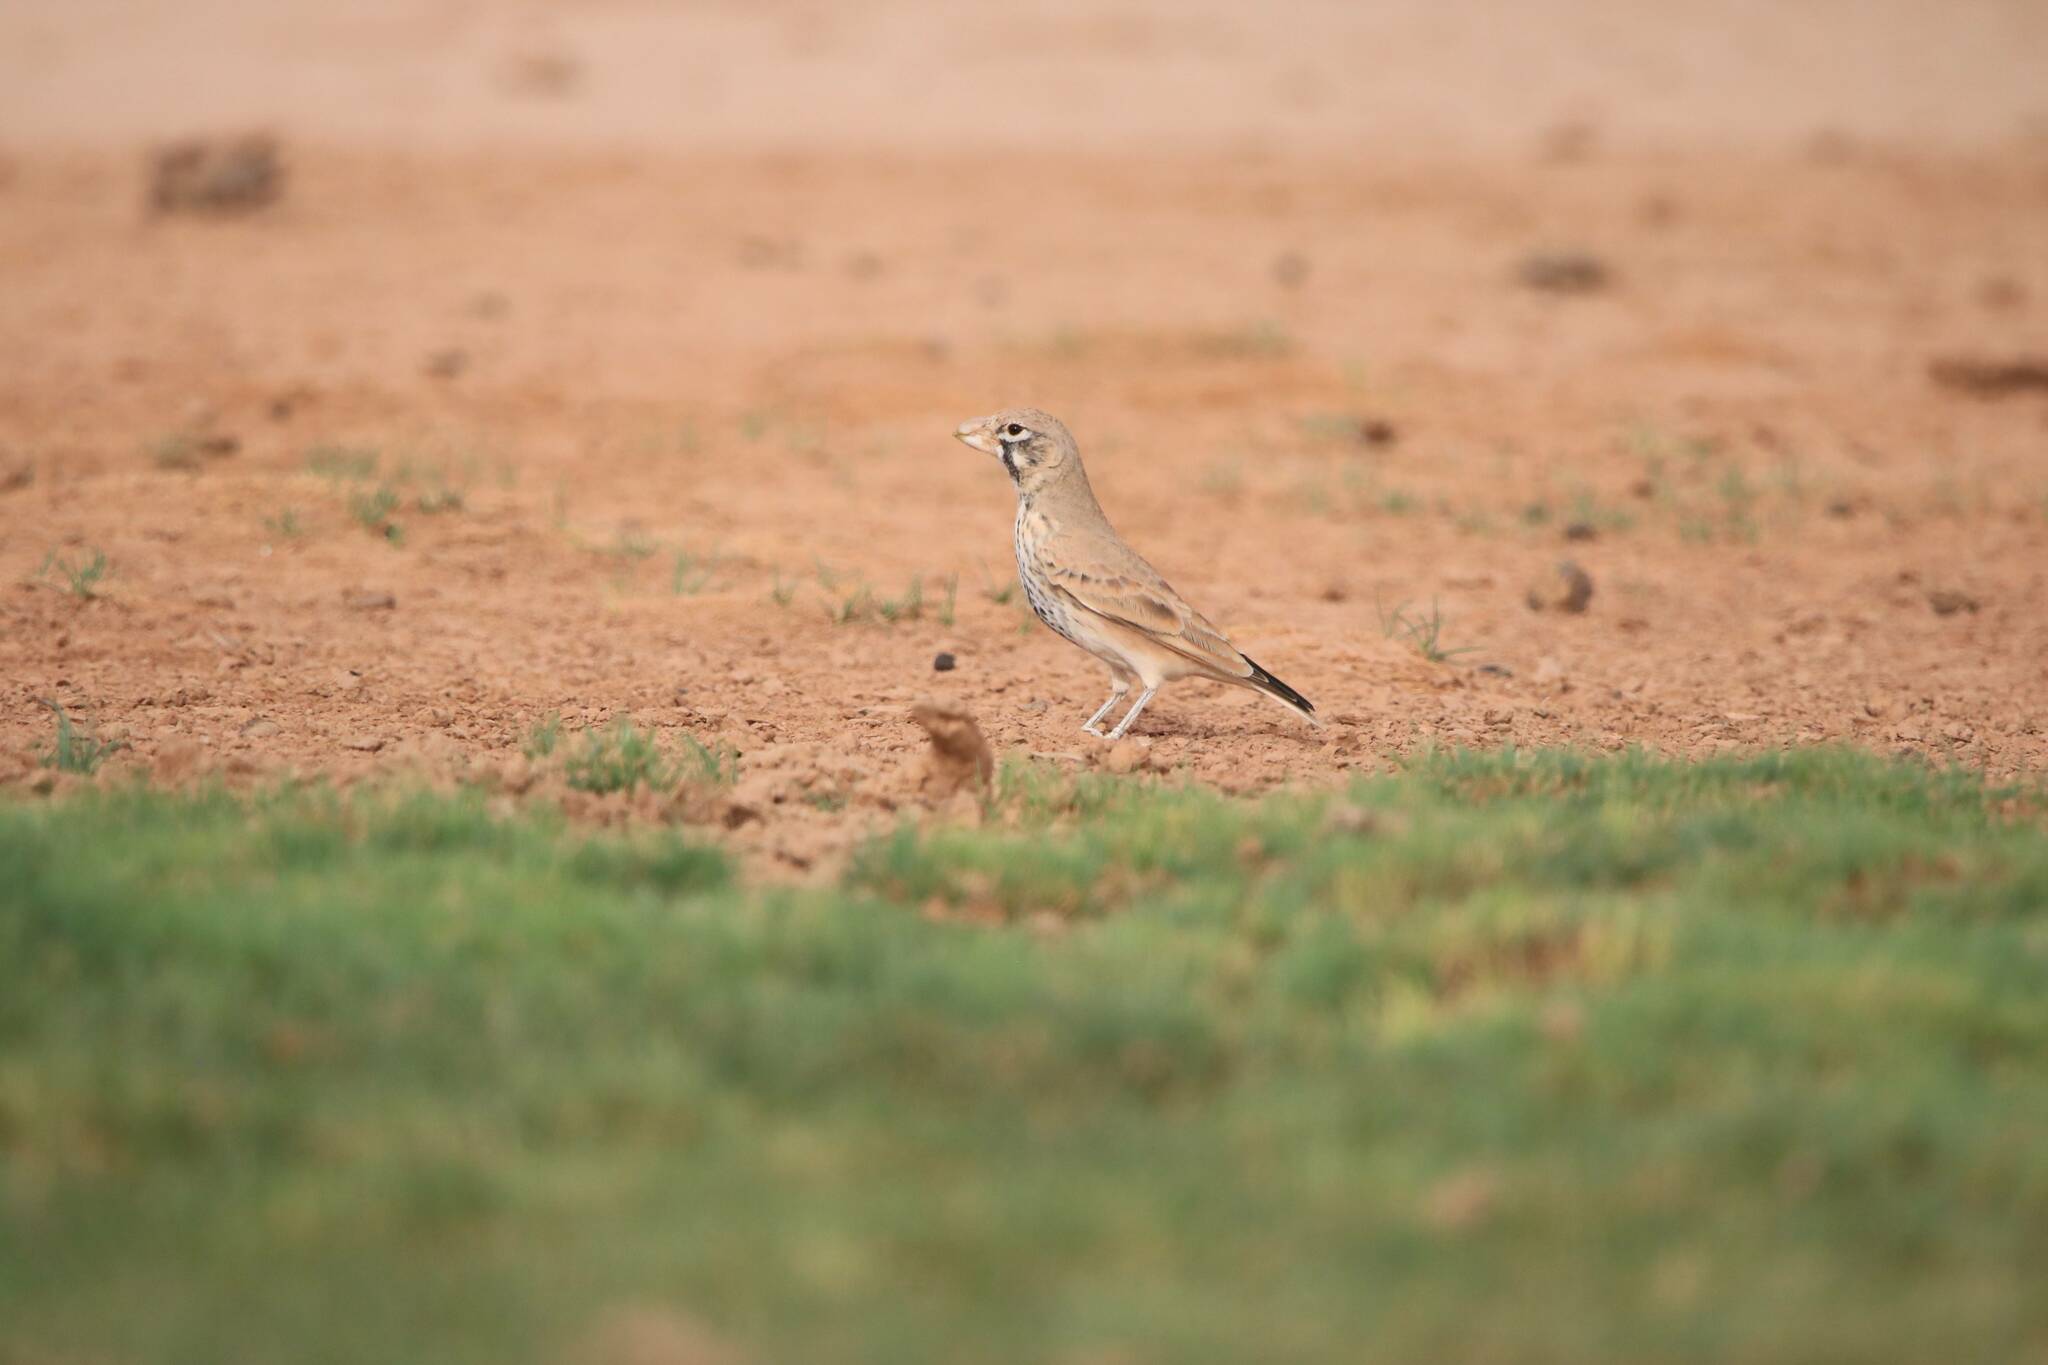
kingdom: Animalia
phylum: Chordata
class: Aves
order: Passeriformes
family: Alaudidae
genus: Ramphocoris
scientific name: Ramphocoris clotbey
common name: Thick-billed lark
